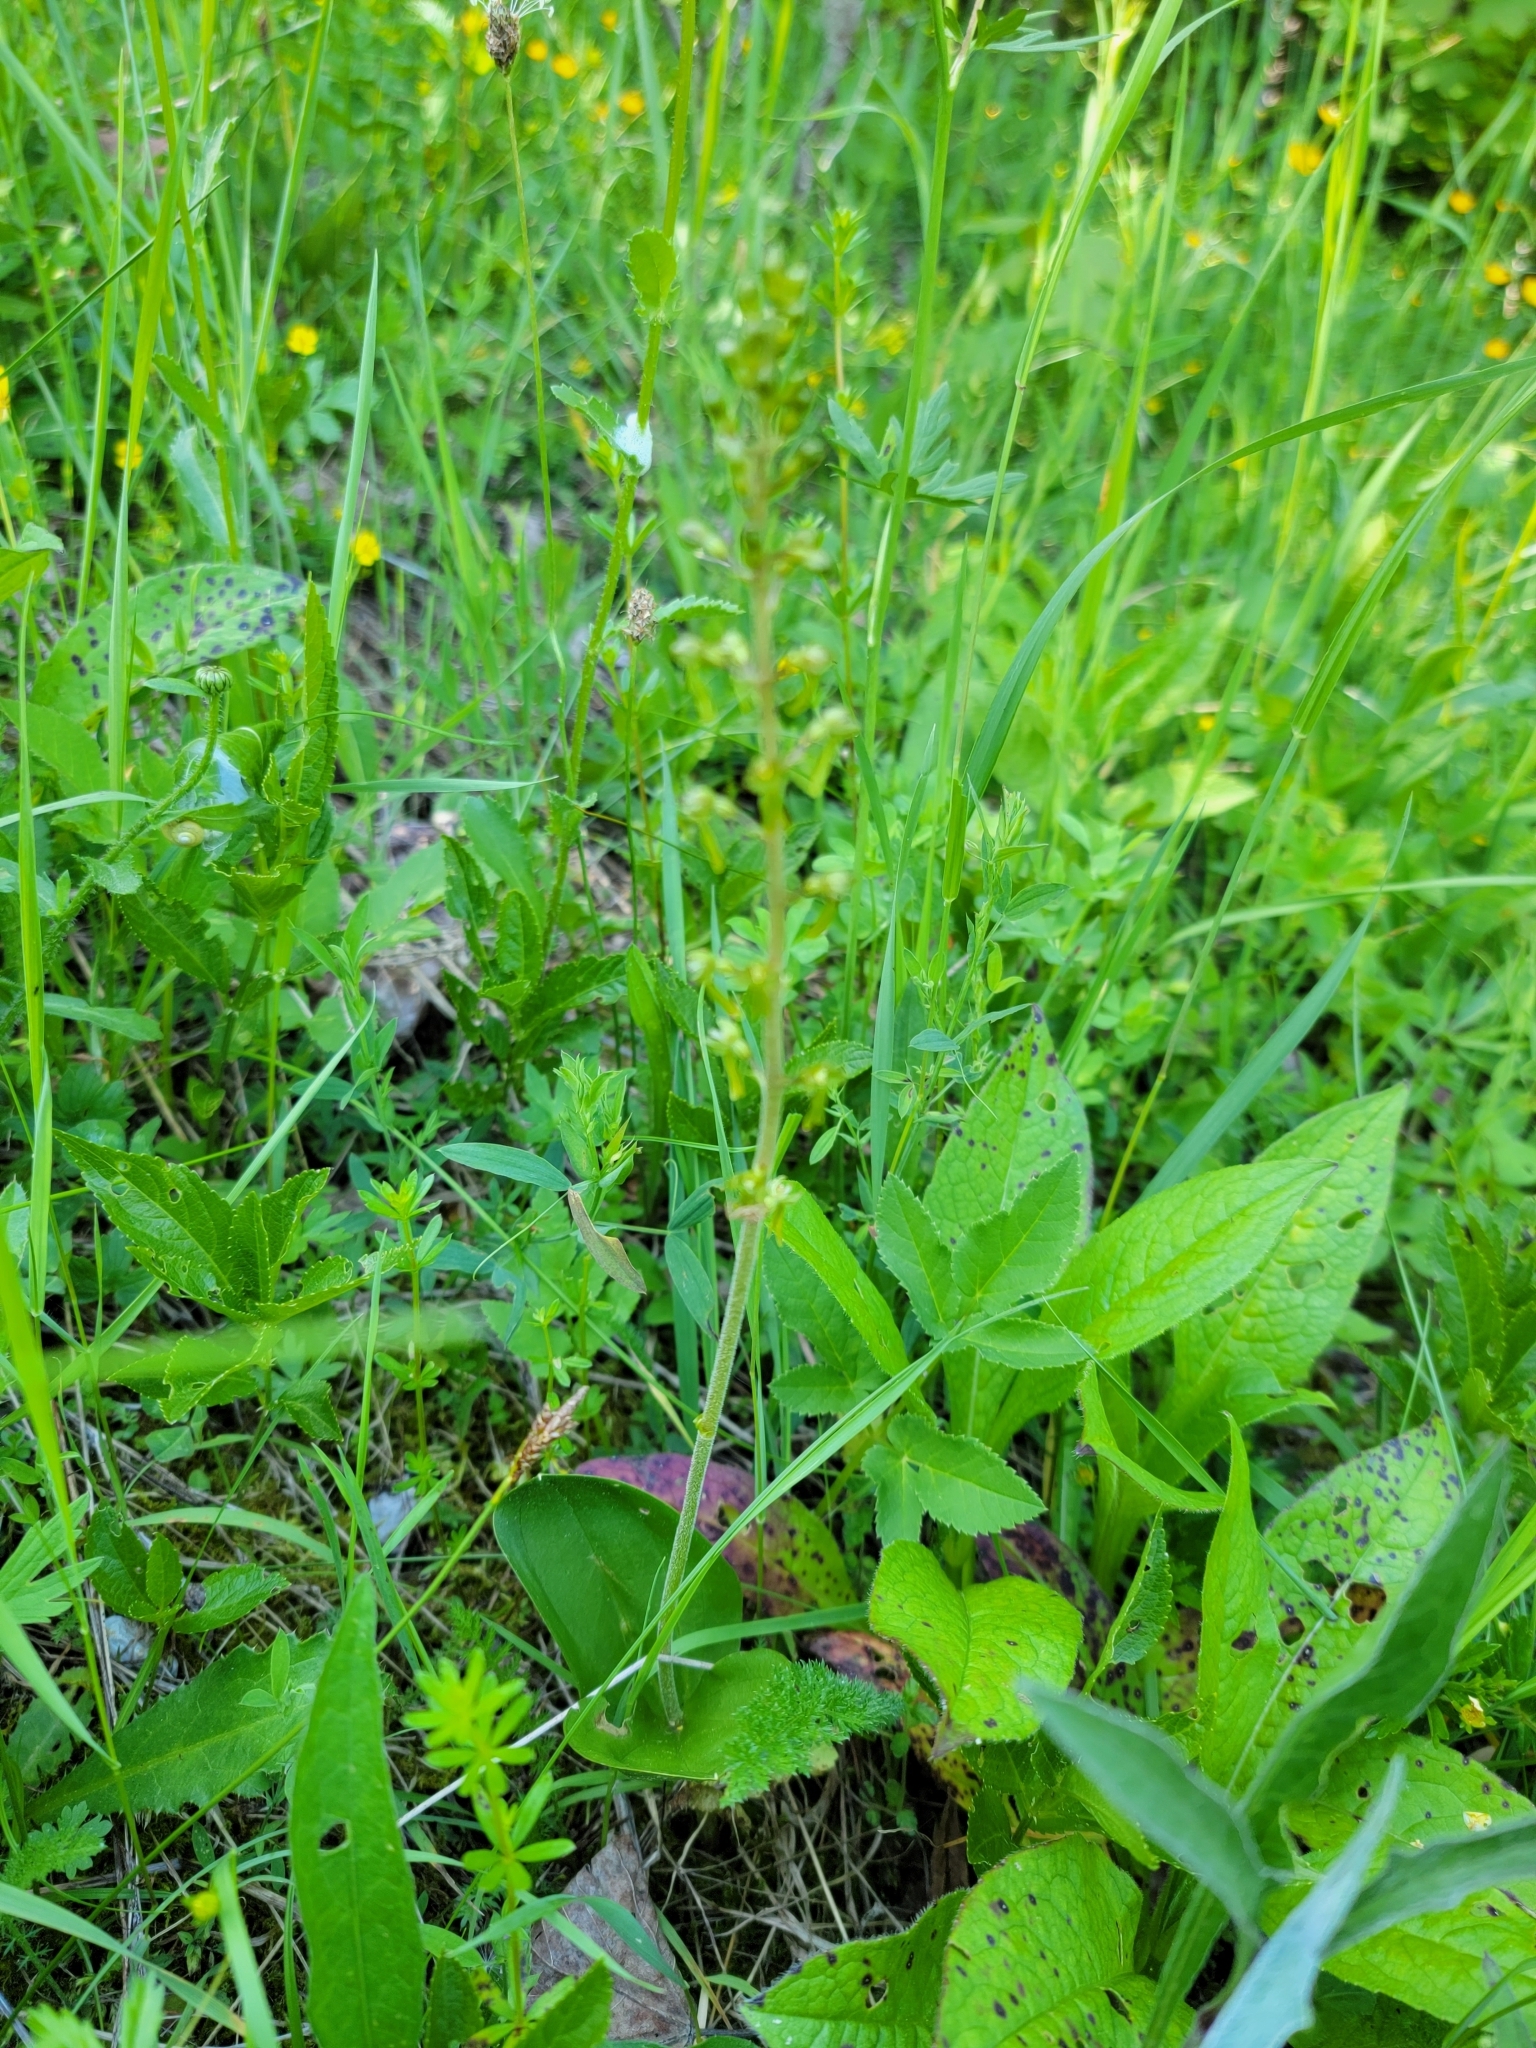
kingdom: Plantae
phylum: Tracheophyta
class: Liliopsida
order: Asparagales
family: Orchidaceae
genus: Neottia
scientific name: Neottia ovata
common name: Common twayblade
